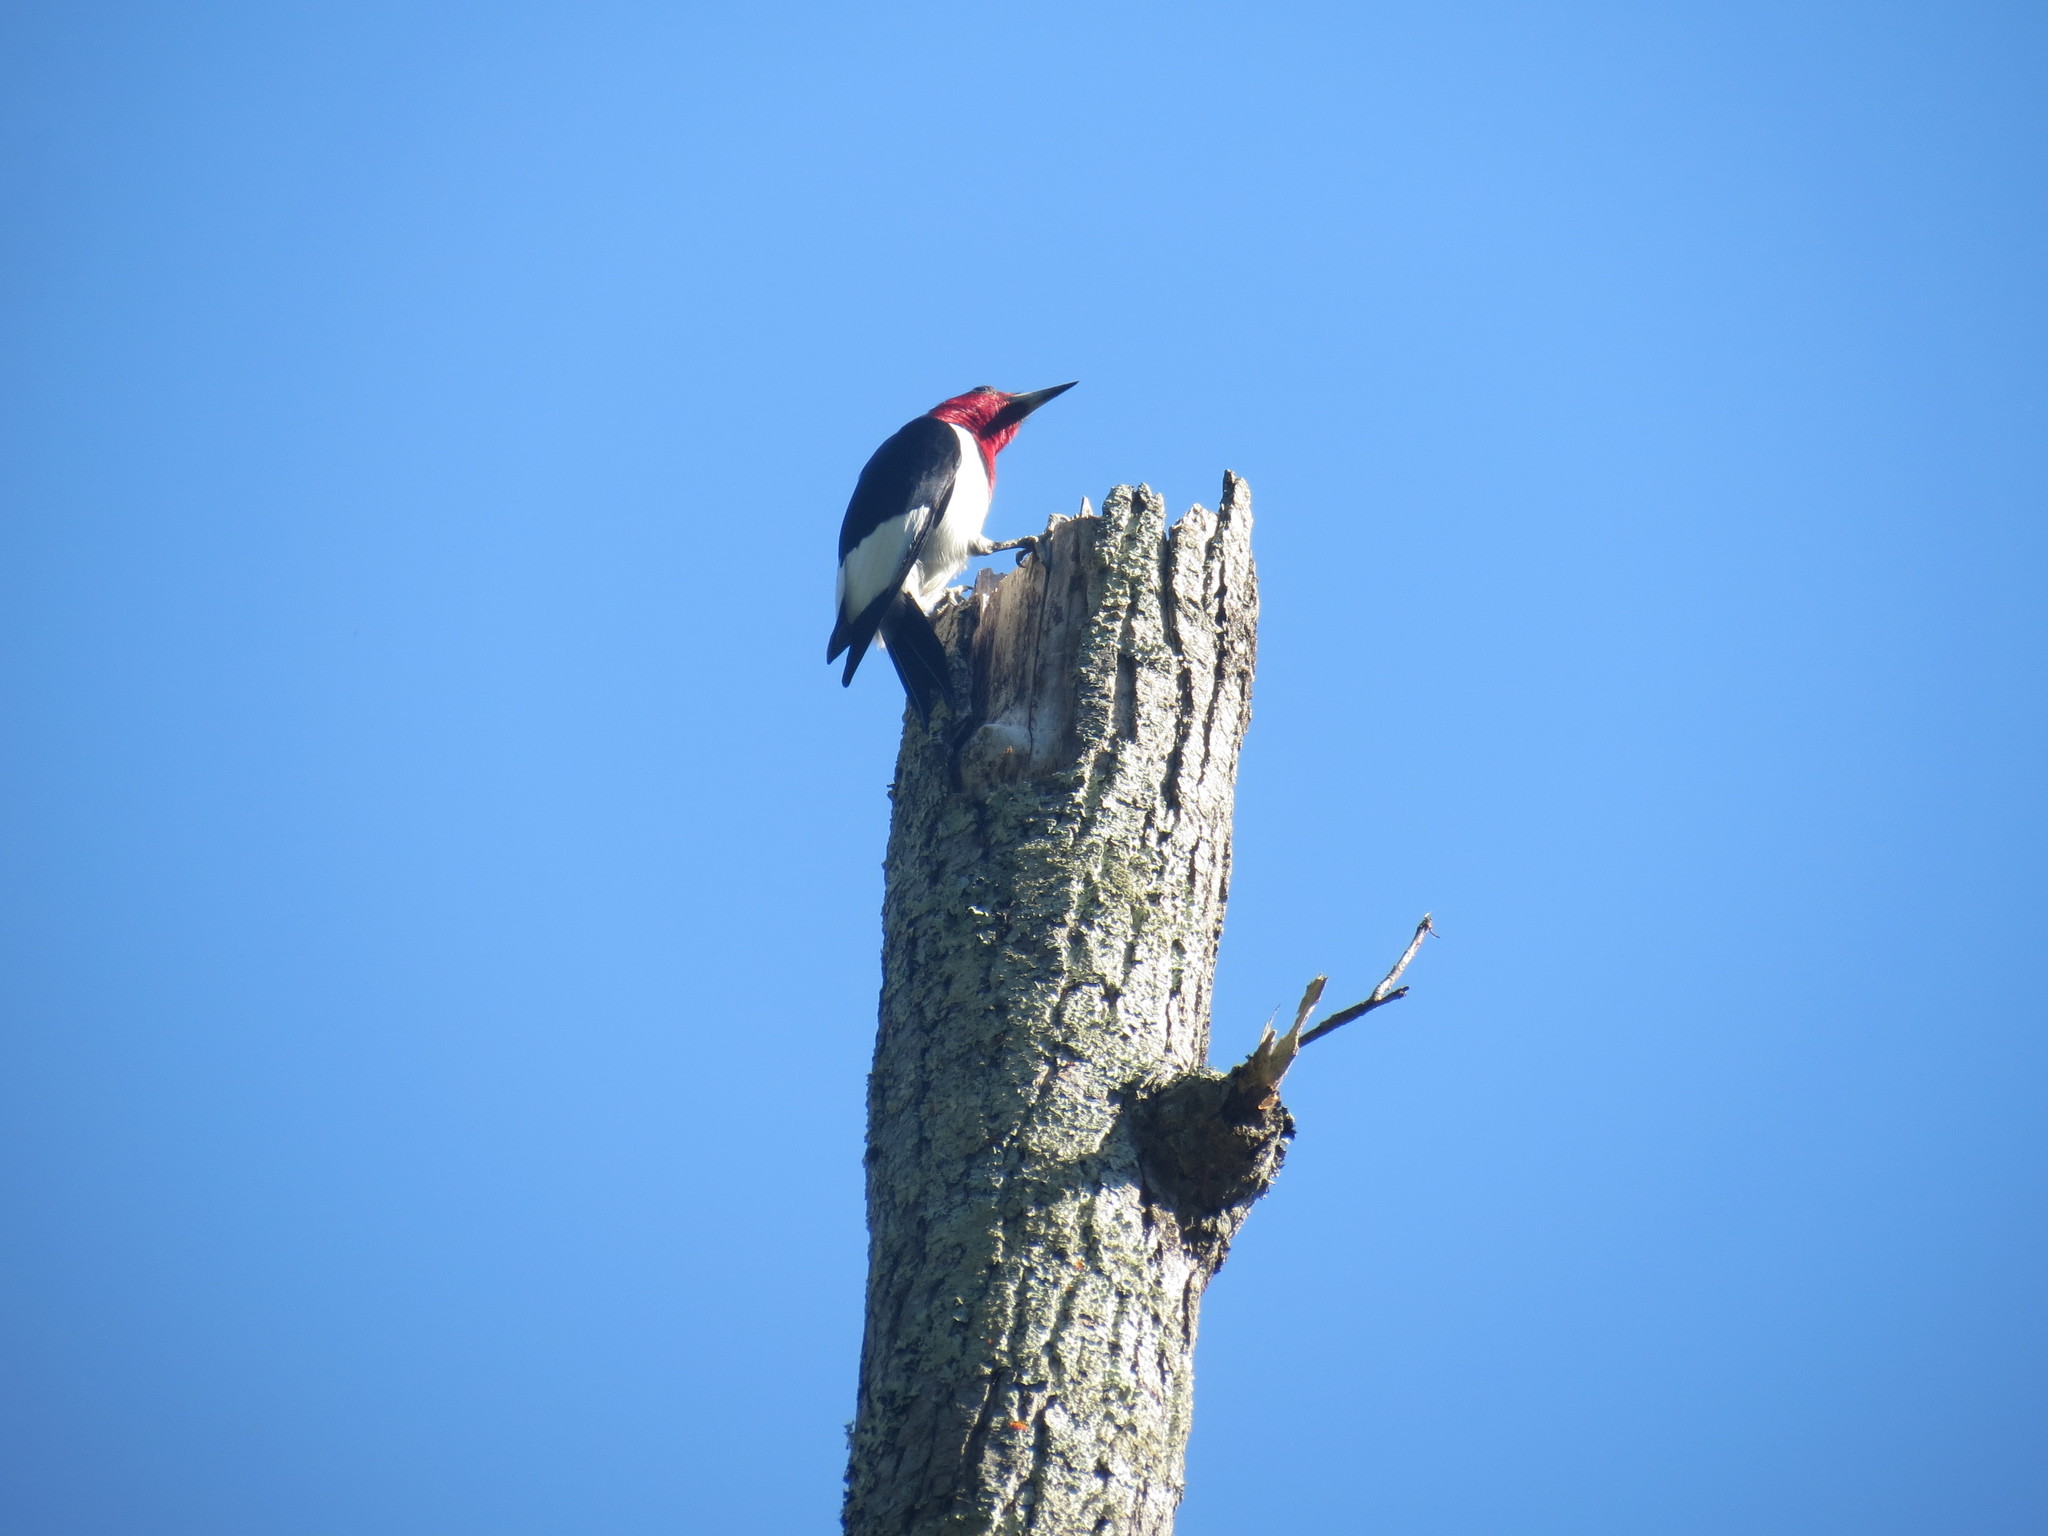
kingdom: Animalia
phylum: Chordata
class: Aves
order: Piciformes
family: Picidae
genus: Melanerpes
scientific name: Melanerpes erythrocephalus
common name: Red-headed woodpecker
